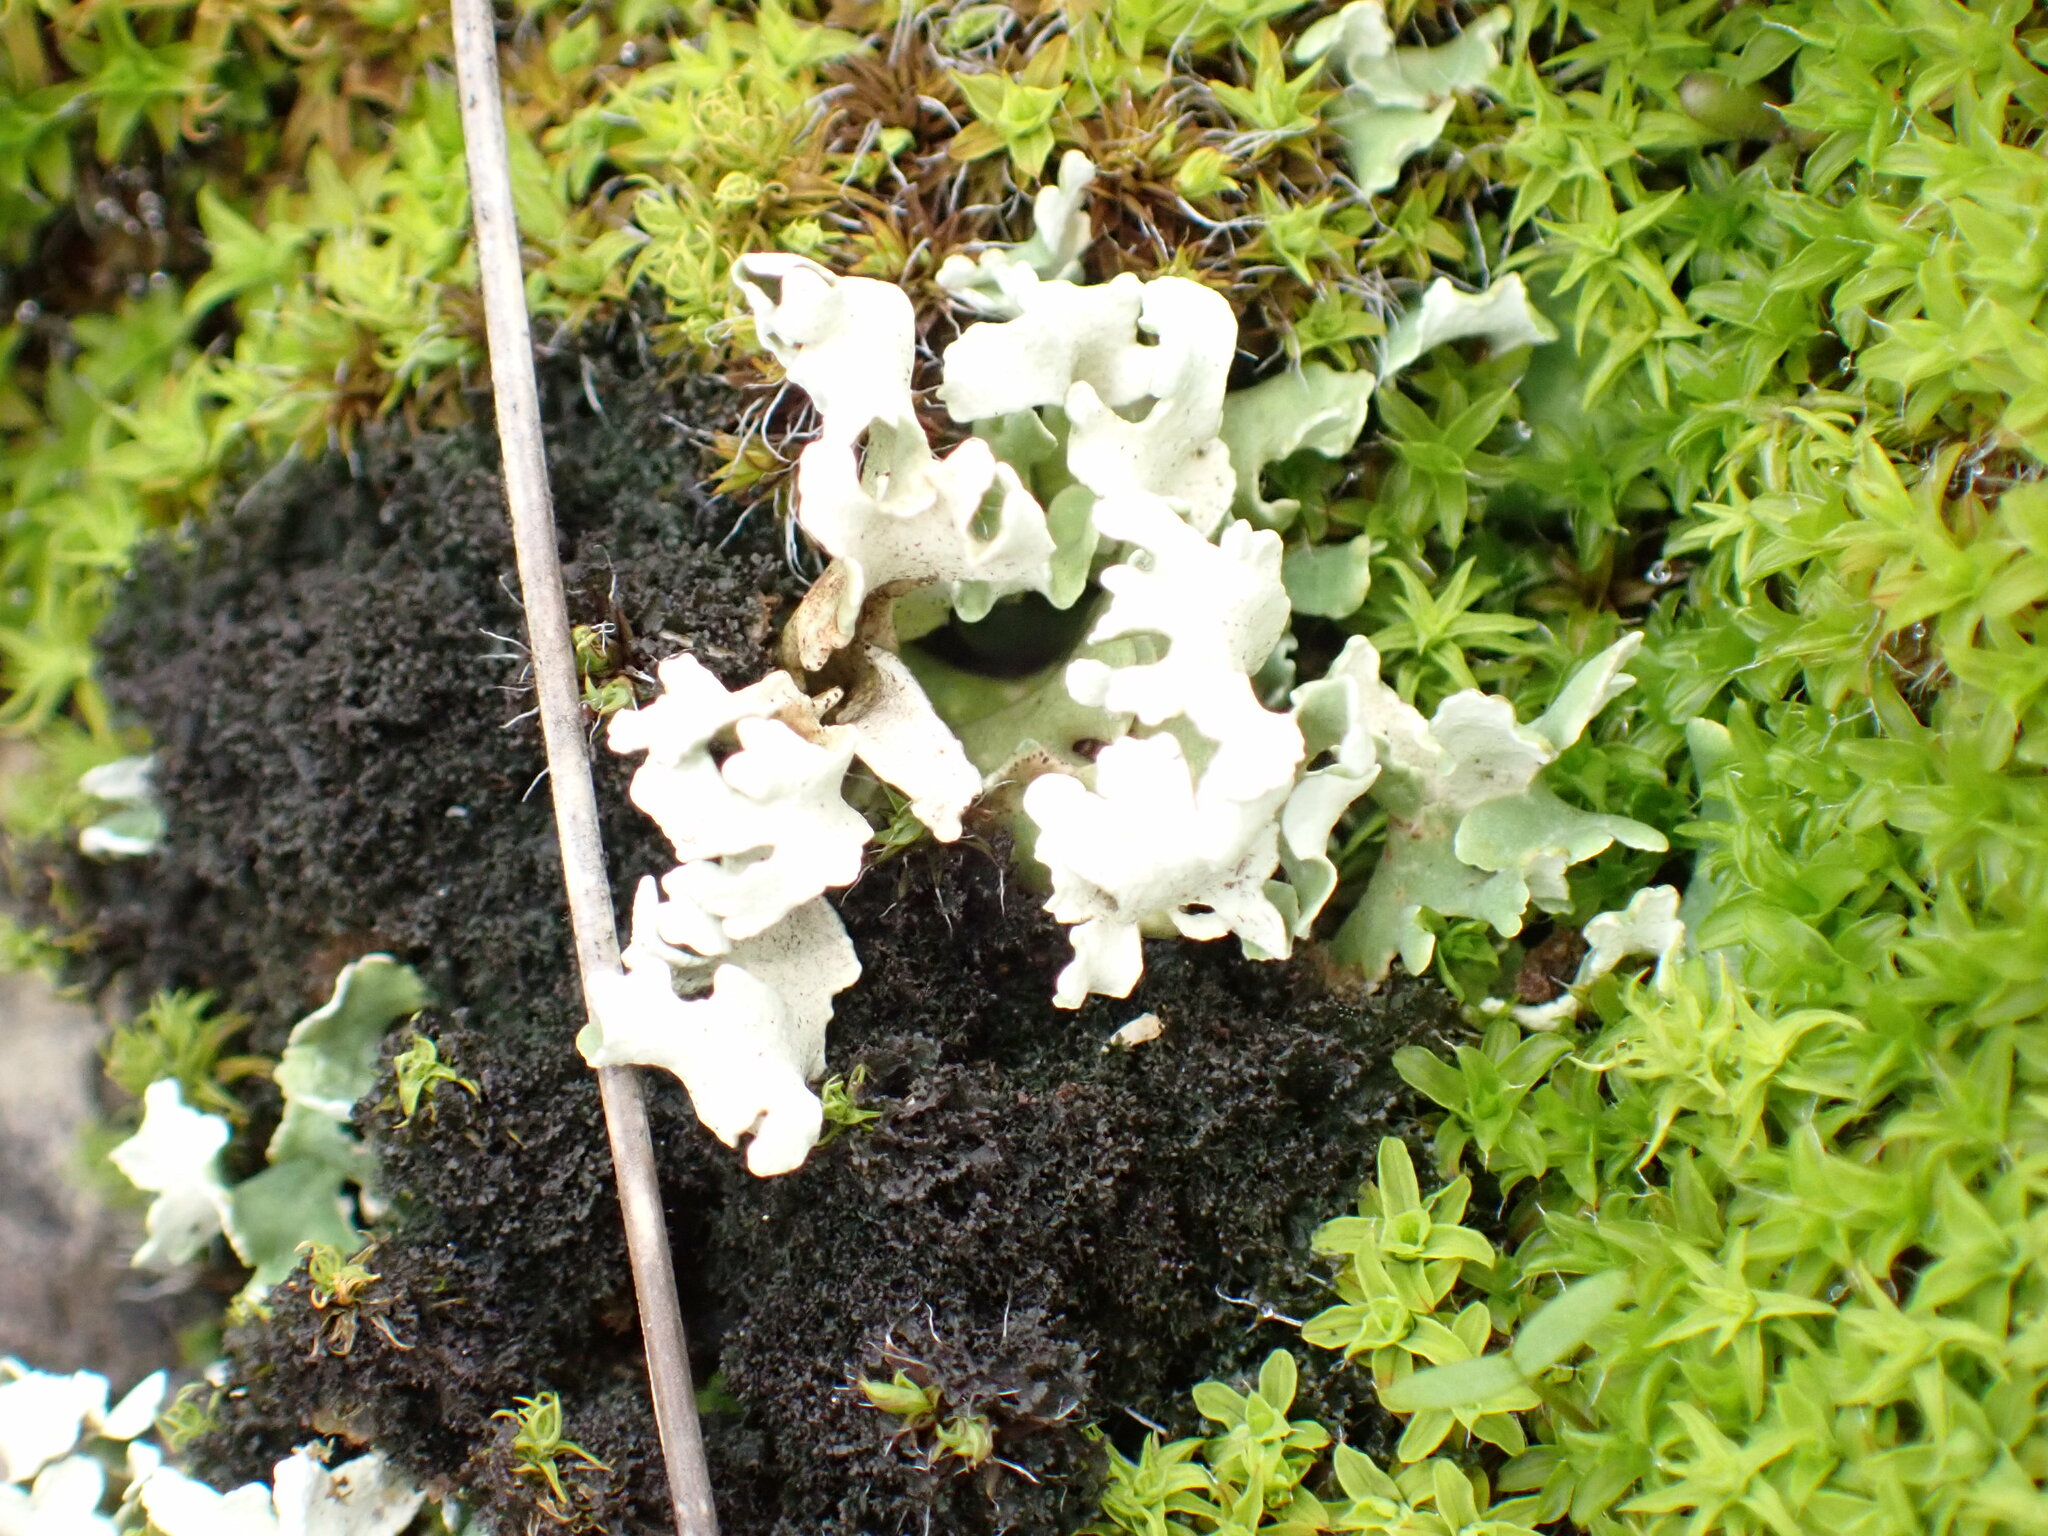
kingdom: Fungi
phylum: Ascomycota
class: Lecanoromycetes
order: Lecanorales
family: Cladoniaceae
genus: Cladonia
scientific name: Cladonia foliacea
